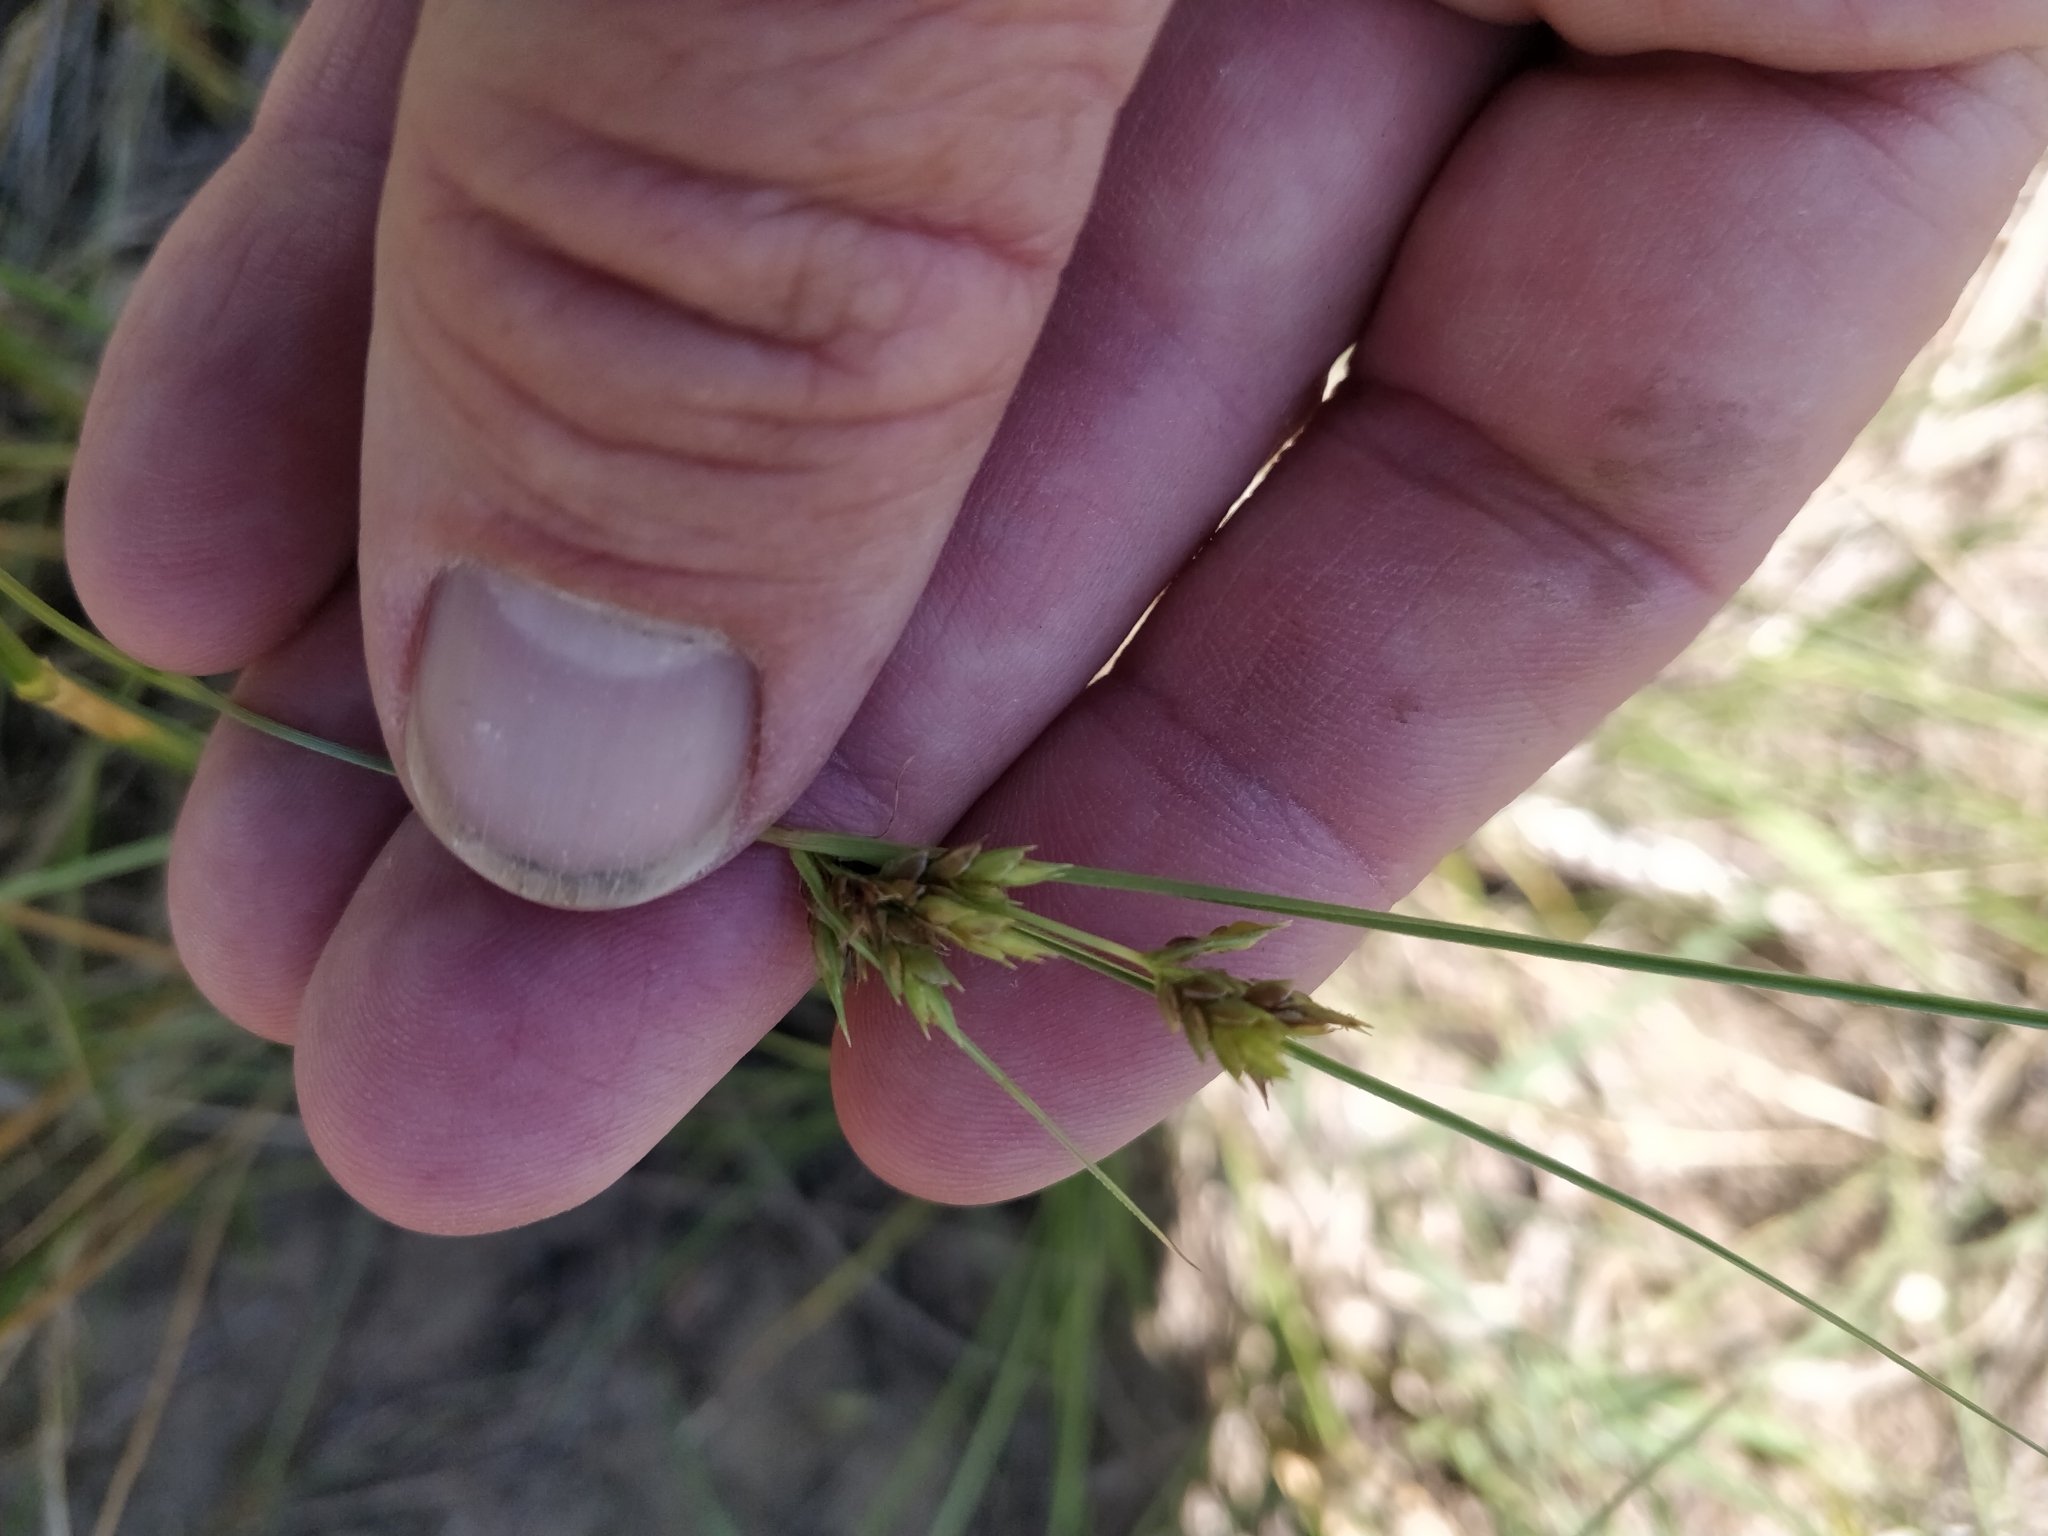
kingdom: Plantae
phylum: Tracheophyta
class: Liliopsida
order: Poales
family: Cyperaceae
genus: Cyperus
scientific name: Cyperus schweinitzii
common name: Schweinitz's cyperus
